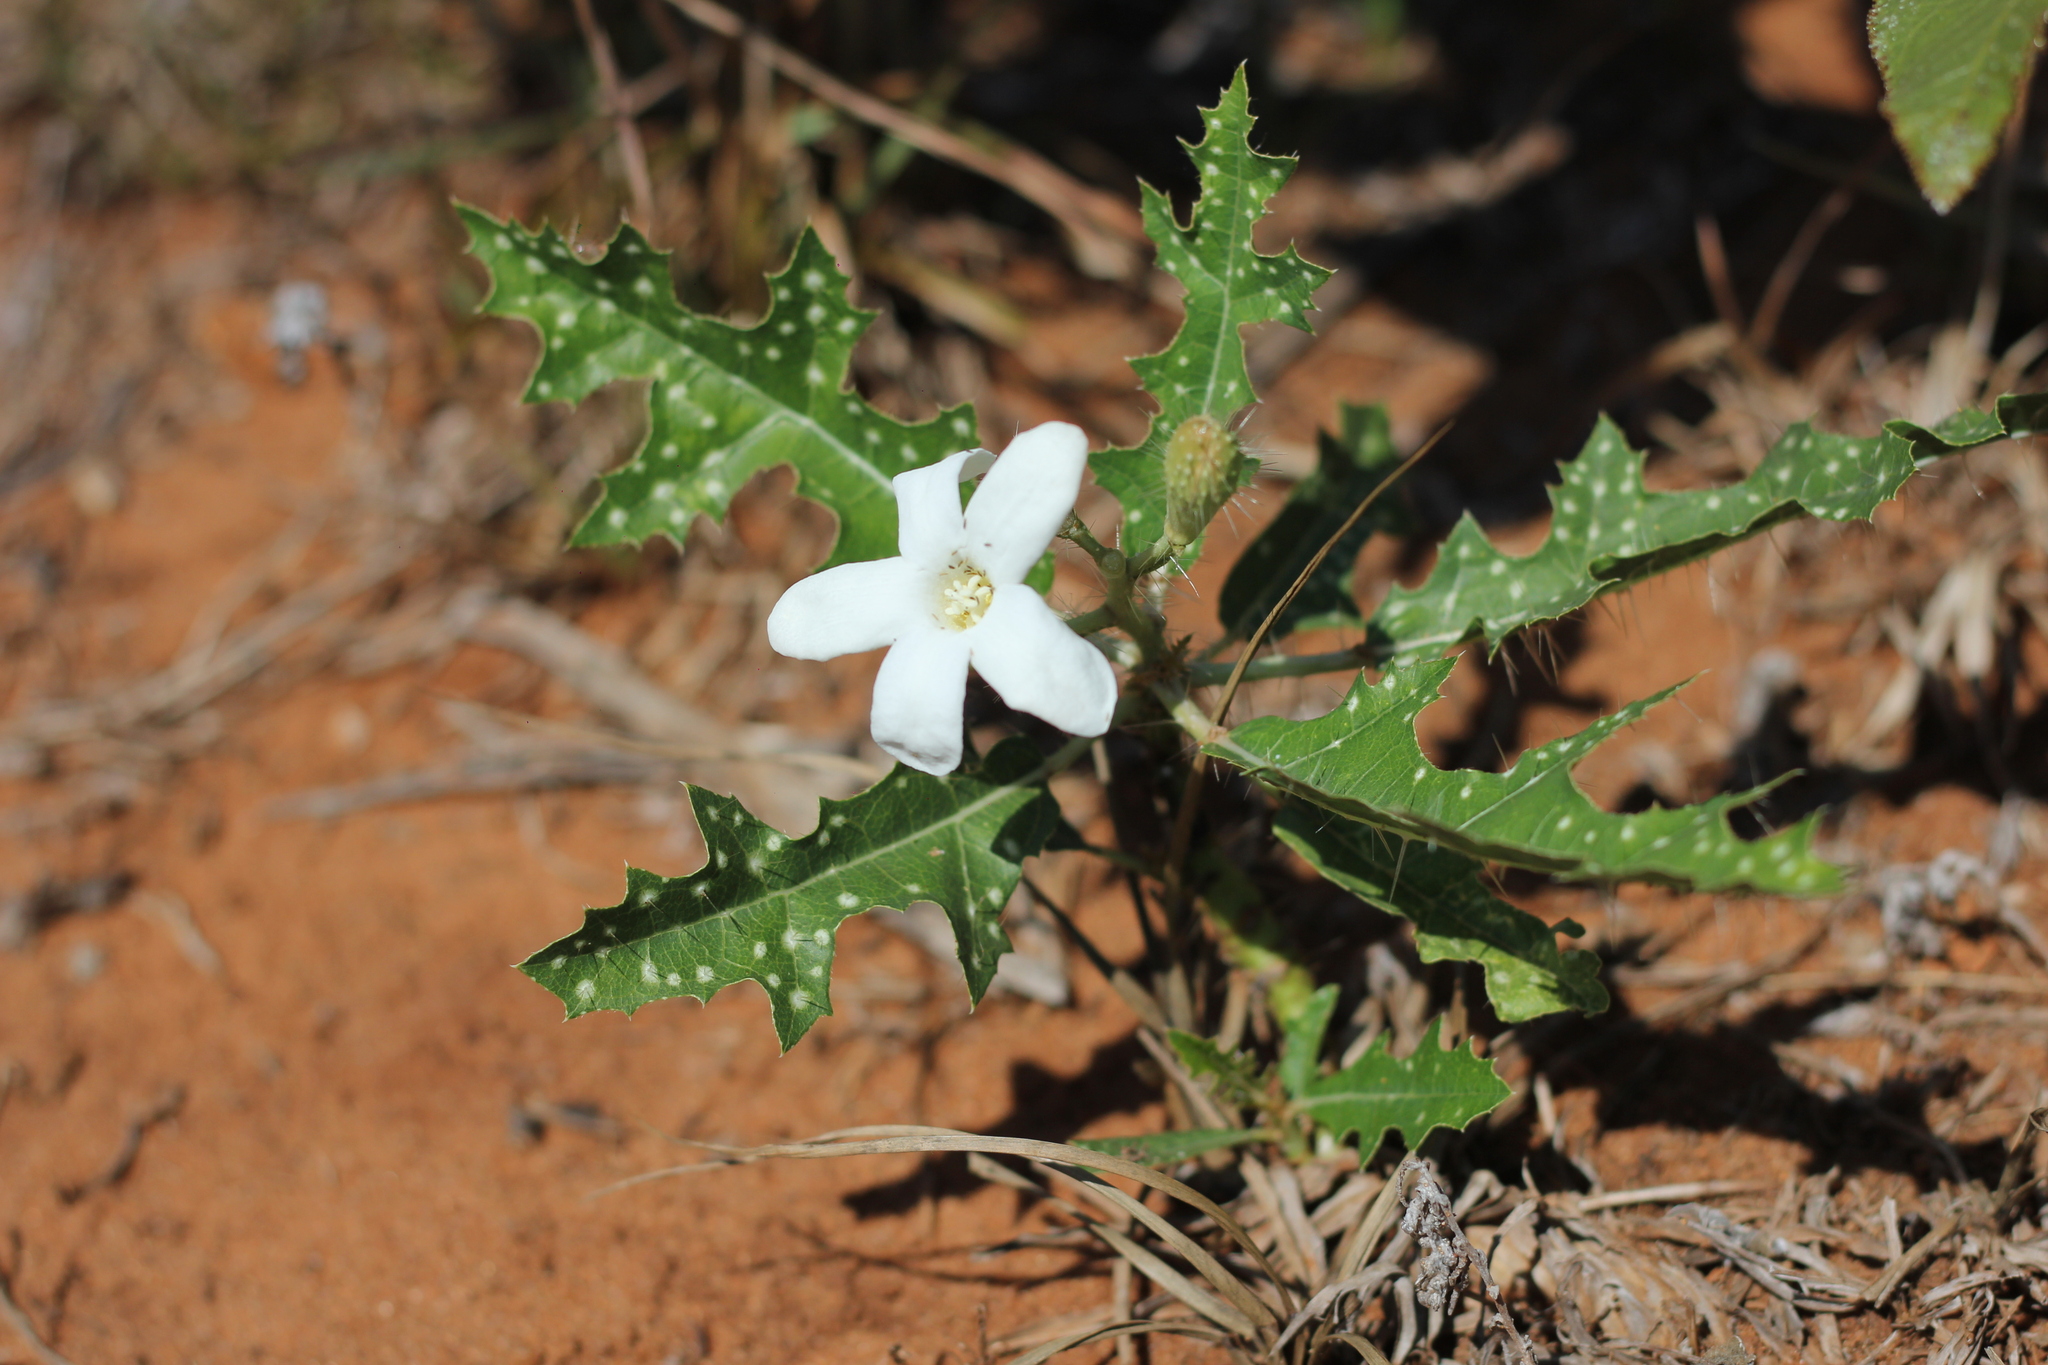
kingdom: Plantae
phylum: Tracheophyta
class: Magnoliopsida
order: Malpighiales
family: Euphorbiaceae
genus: Cnidoscolus
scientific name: Cnidoscolus loasoides
